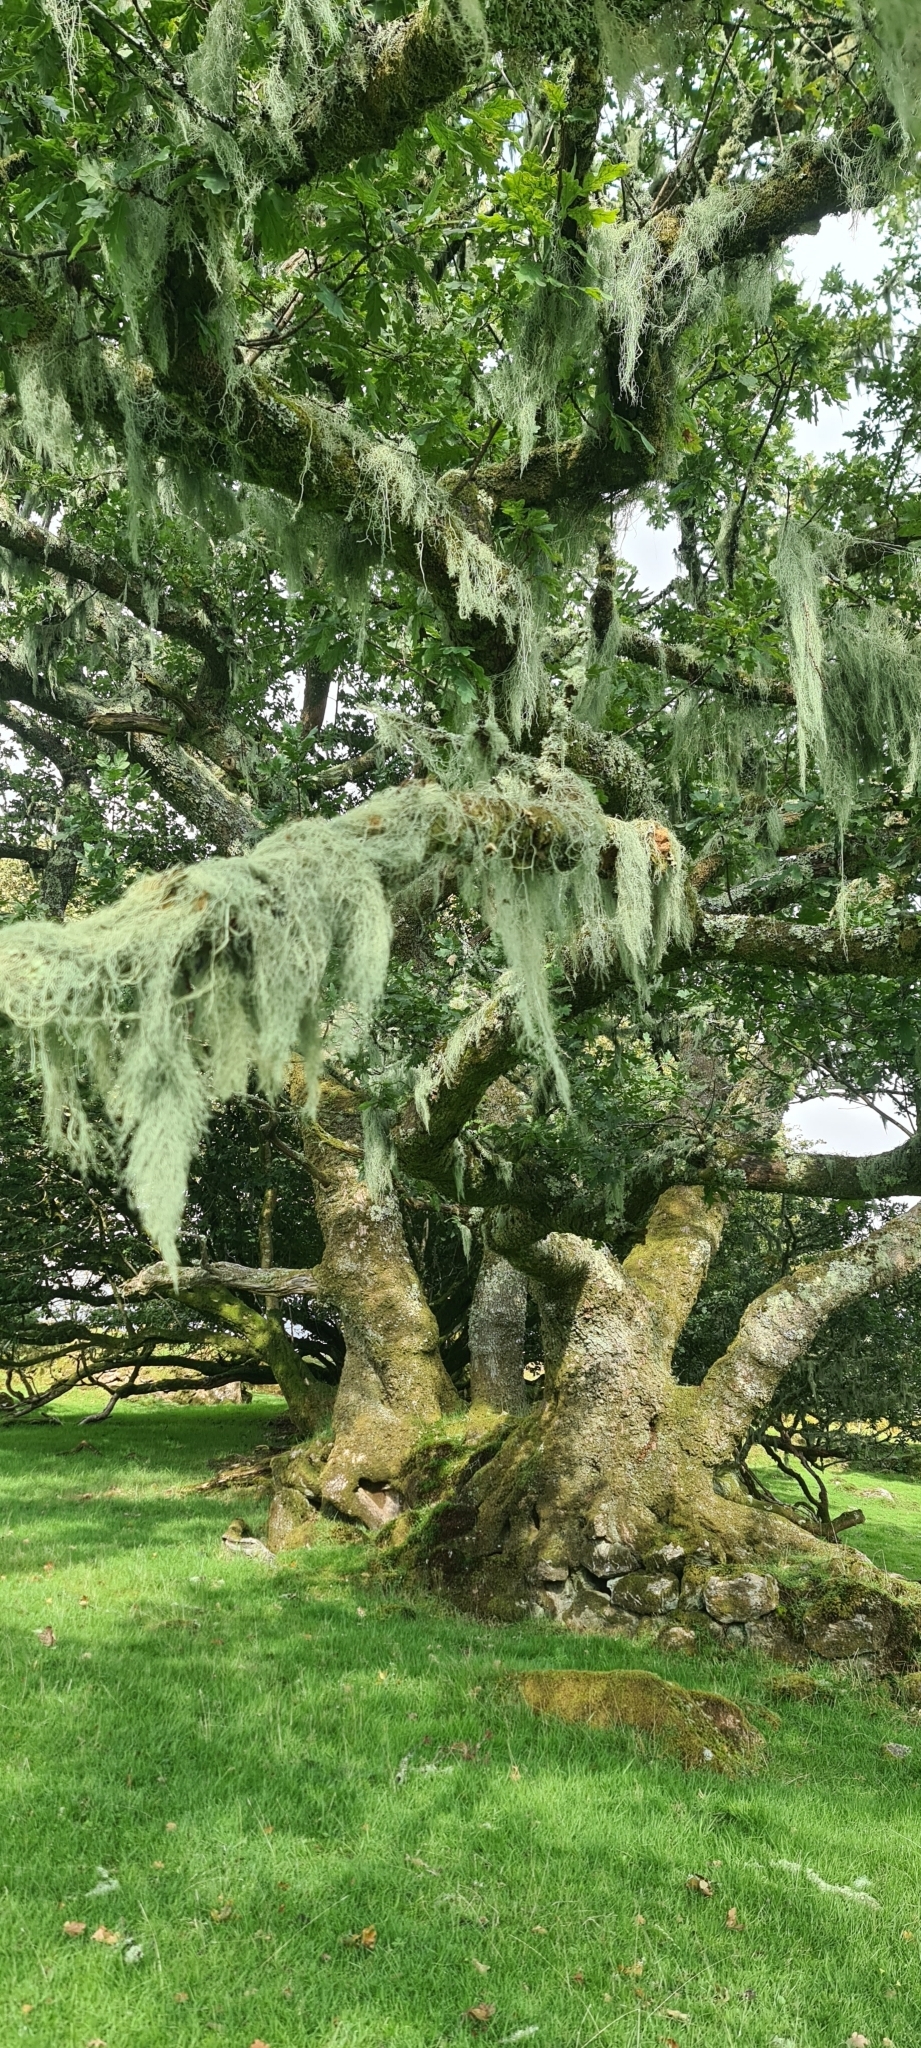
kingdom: Fungi
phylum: Ascomycota
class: Lecanoromycetes
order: Lecanorales
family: Parmeliaceae
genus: Usnea
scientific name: Usnea articulata
